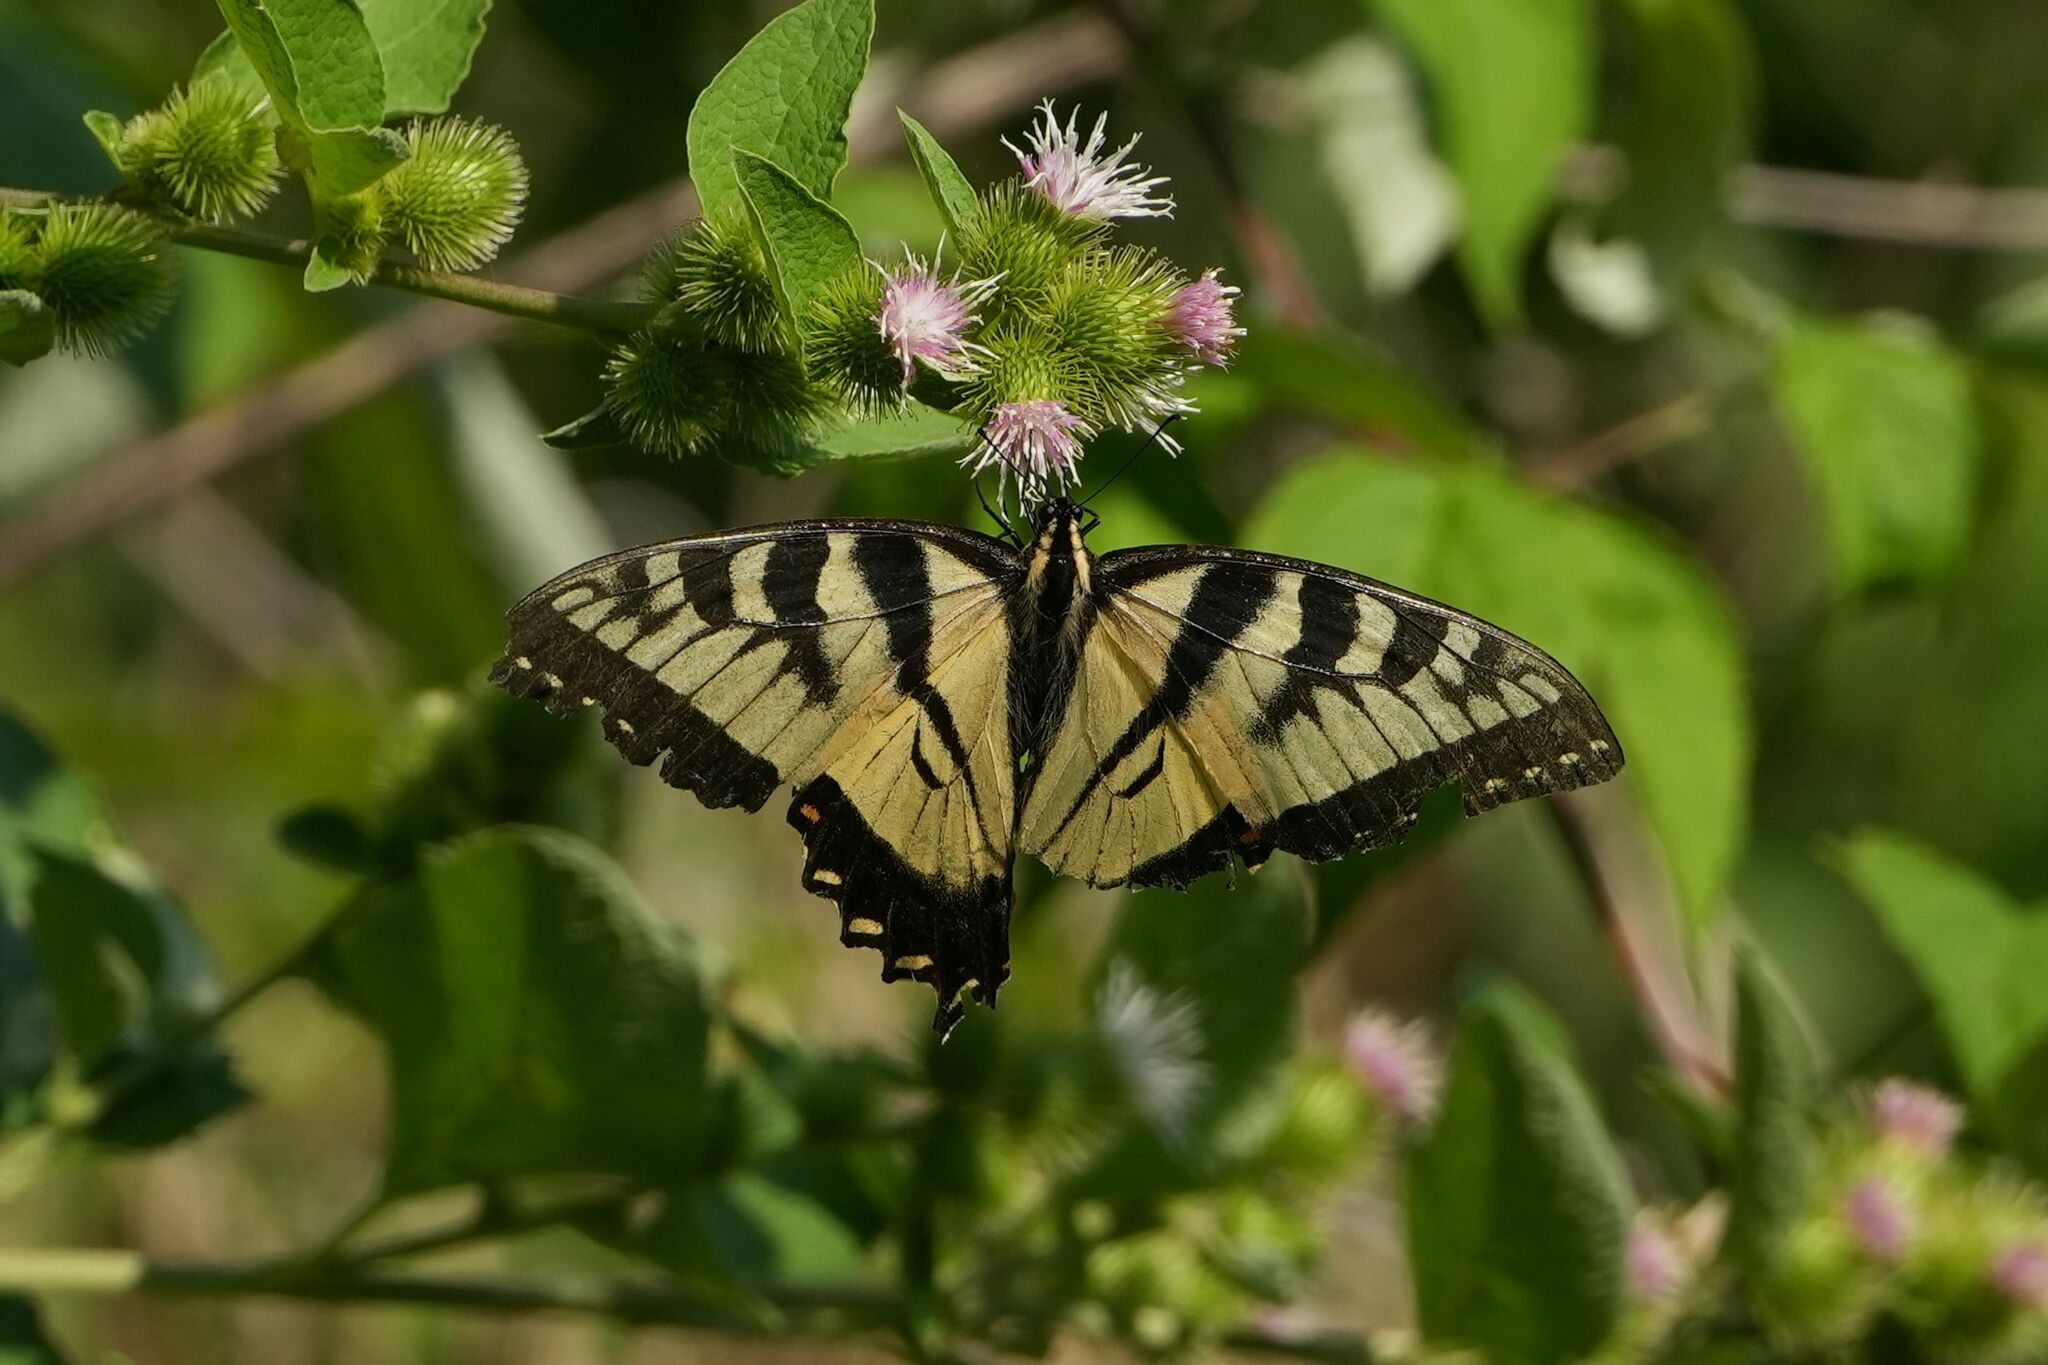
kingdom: Animalia
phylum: Arthropoda
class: Insecta
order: Lepidoptera
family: Papilionidae
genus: Papilio
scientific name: Papilio
